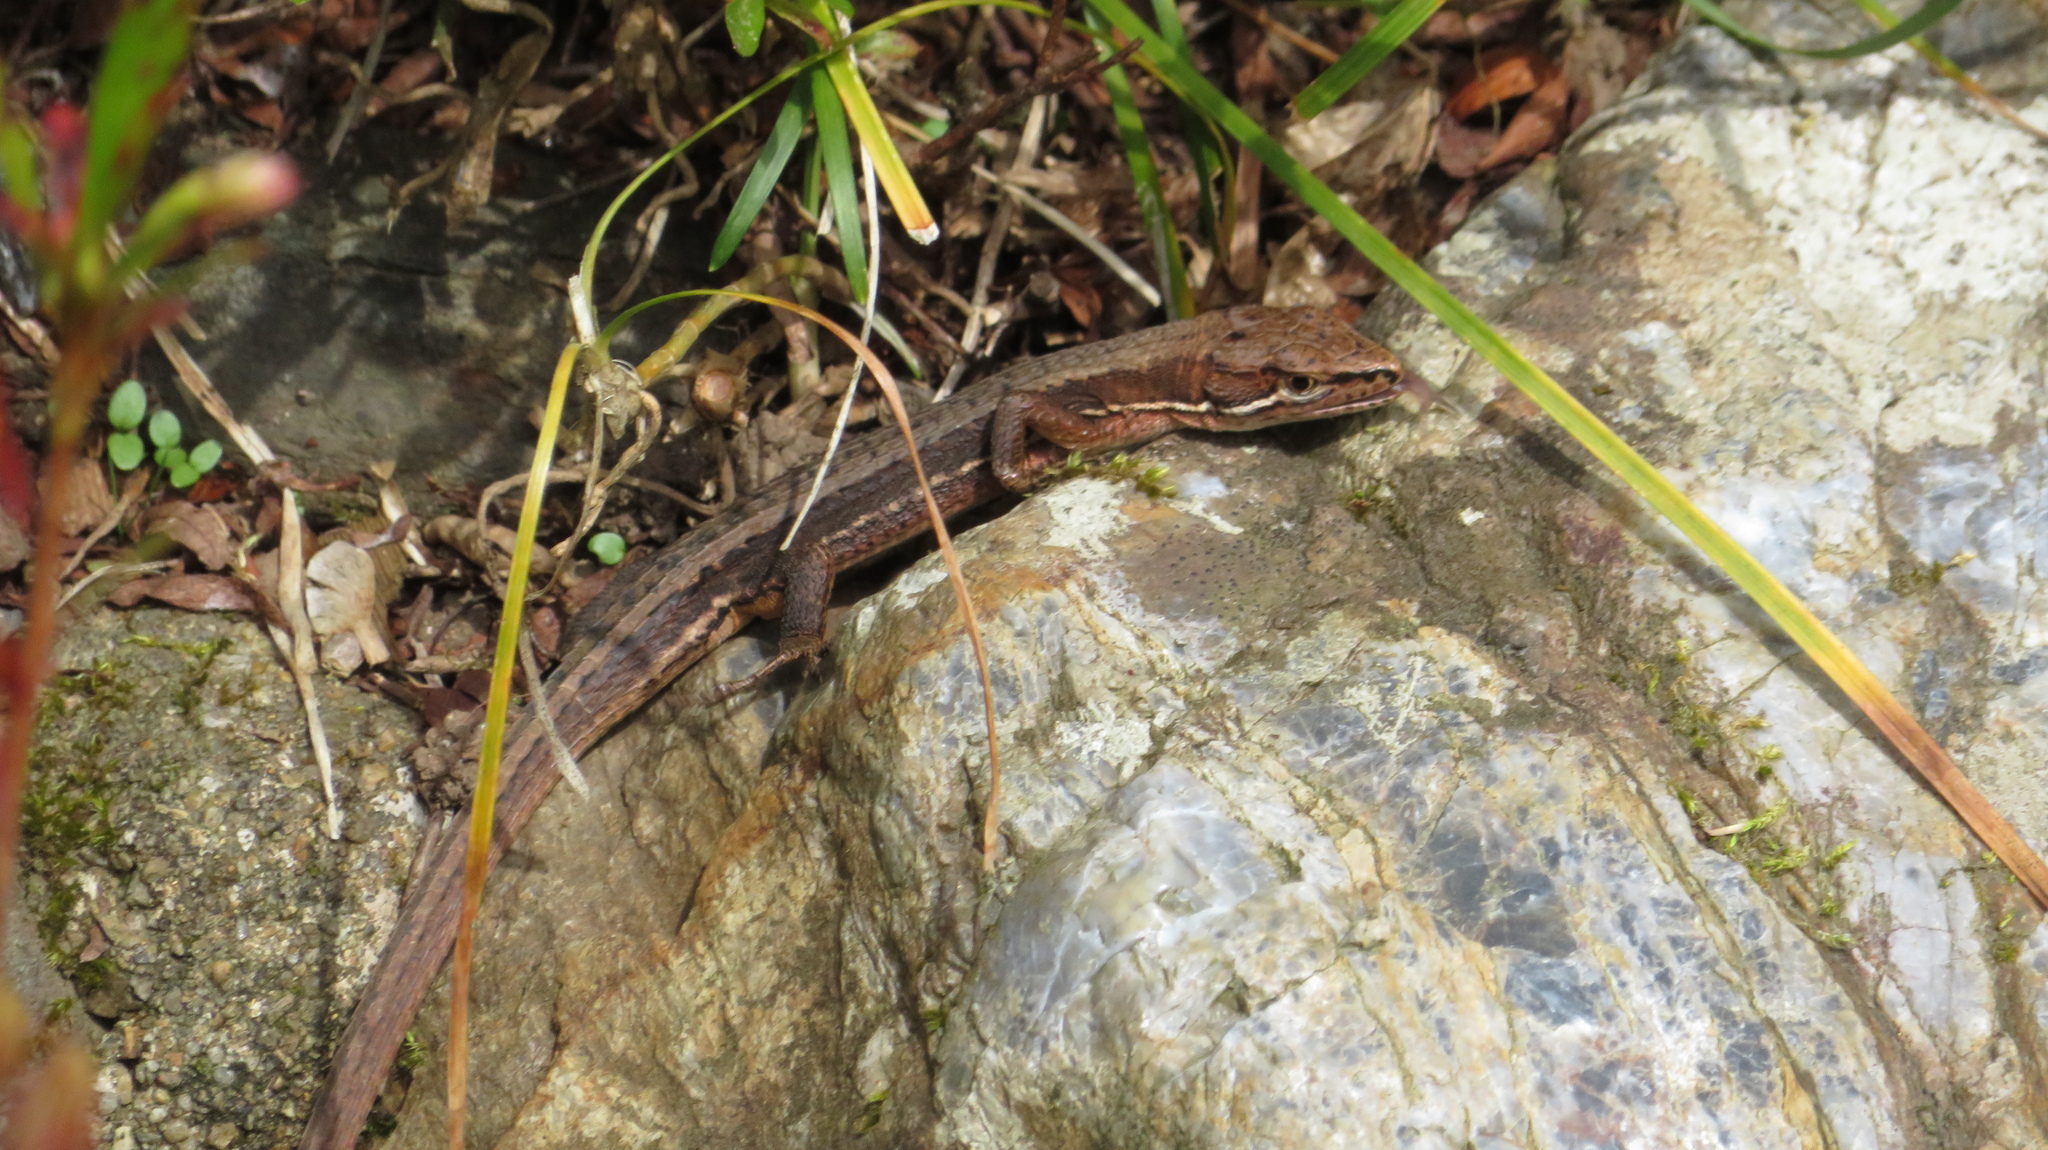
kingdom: Animalia
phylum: Chordata
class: Squamata
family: Lacertidae
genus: Takydromus
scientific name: Takydromus tachydromoides
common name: Japanese grass lizard
